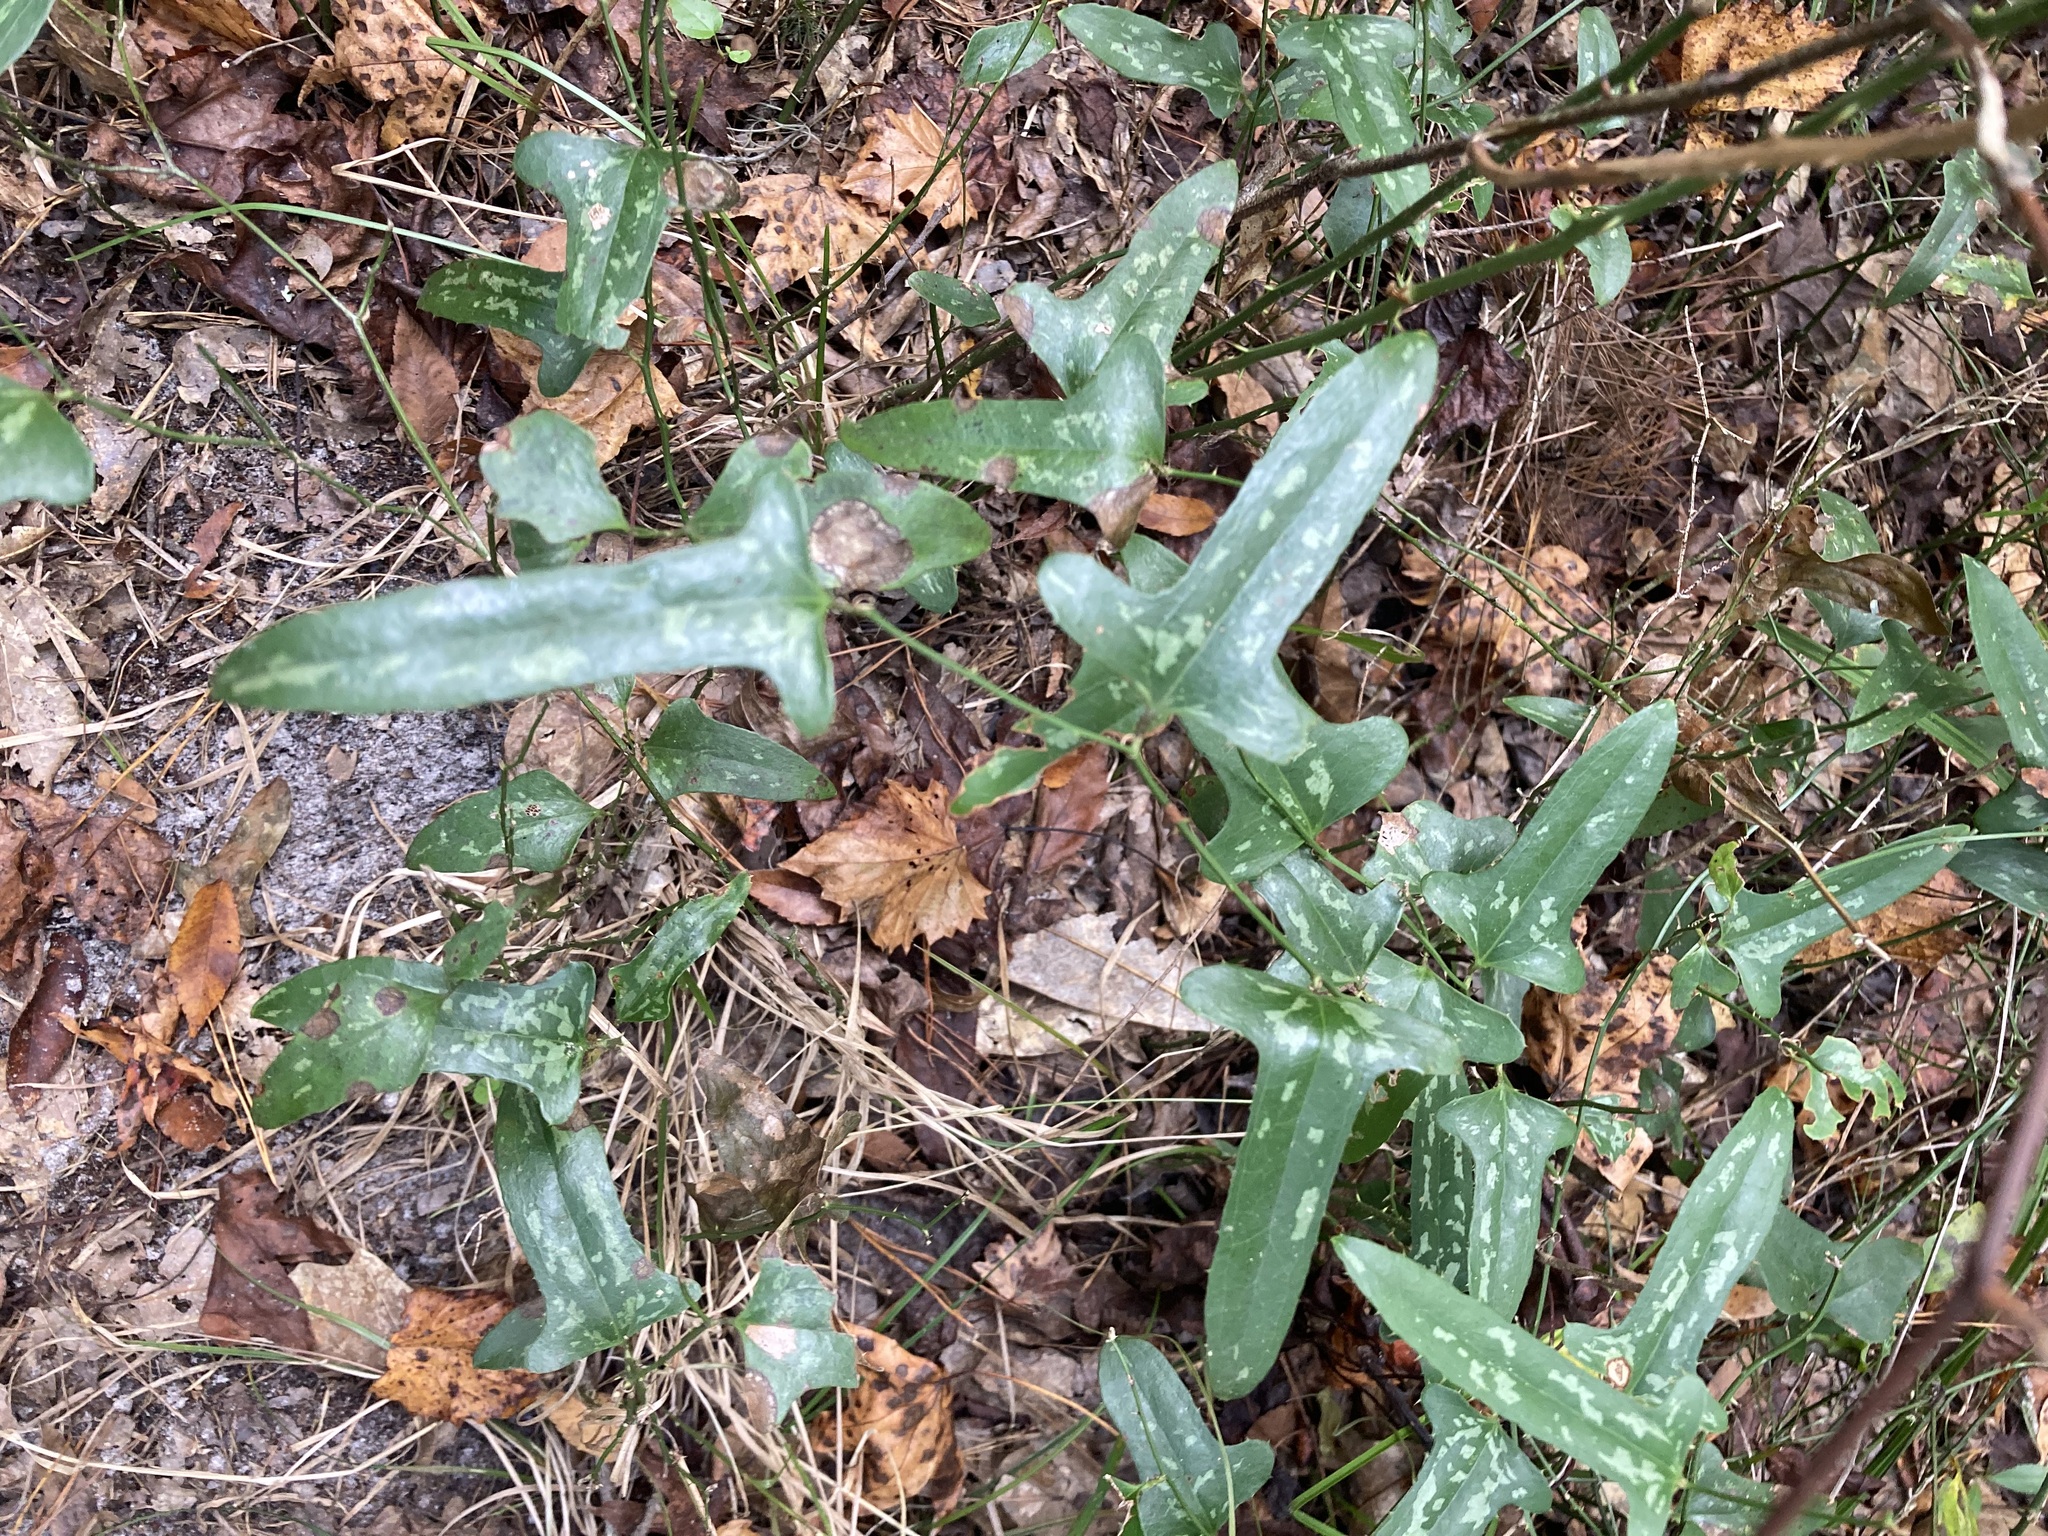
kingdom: Plantae
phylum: Tracheophyta
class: Liliopsida
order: Liliales
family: Smilacaceae
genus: Smilax
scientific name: Smilax bona-nox
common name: Catbrier
